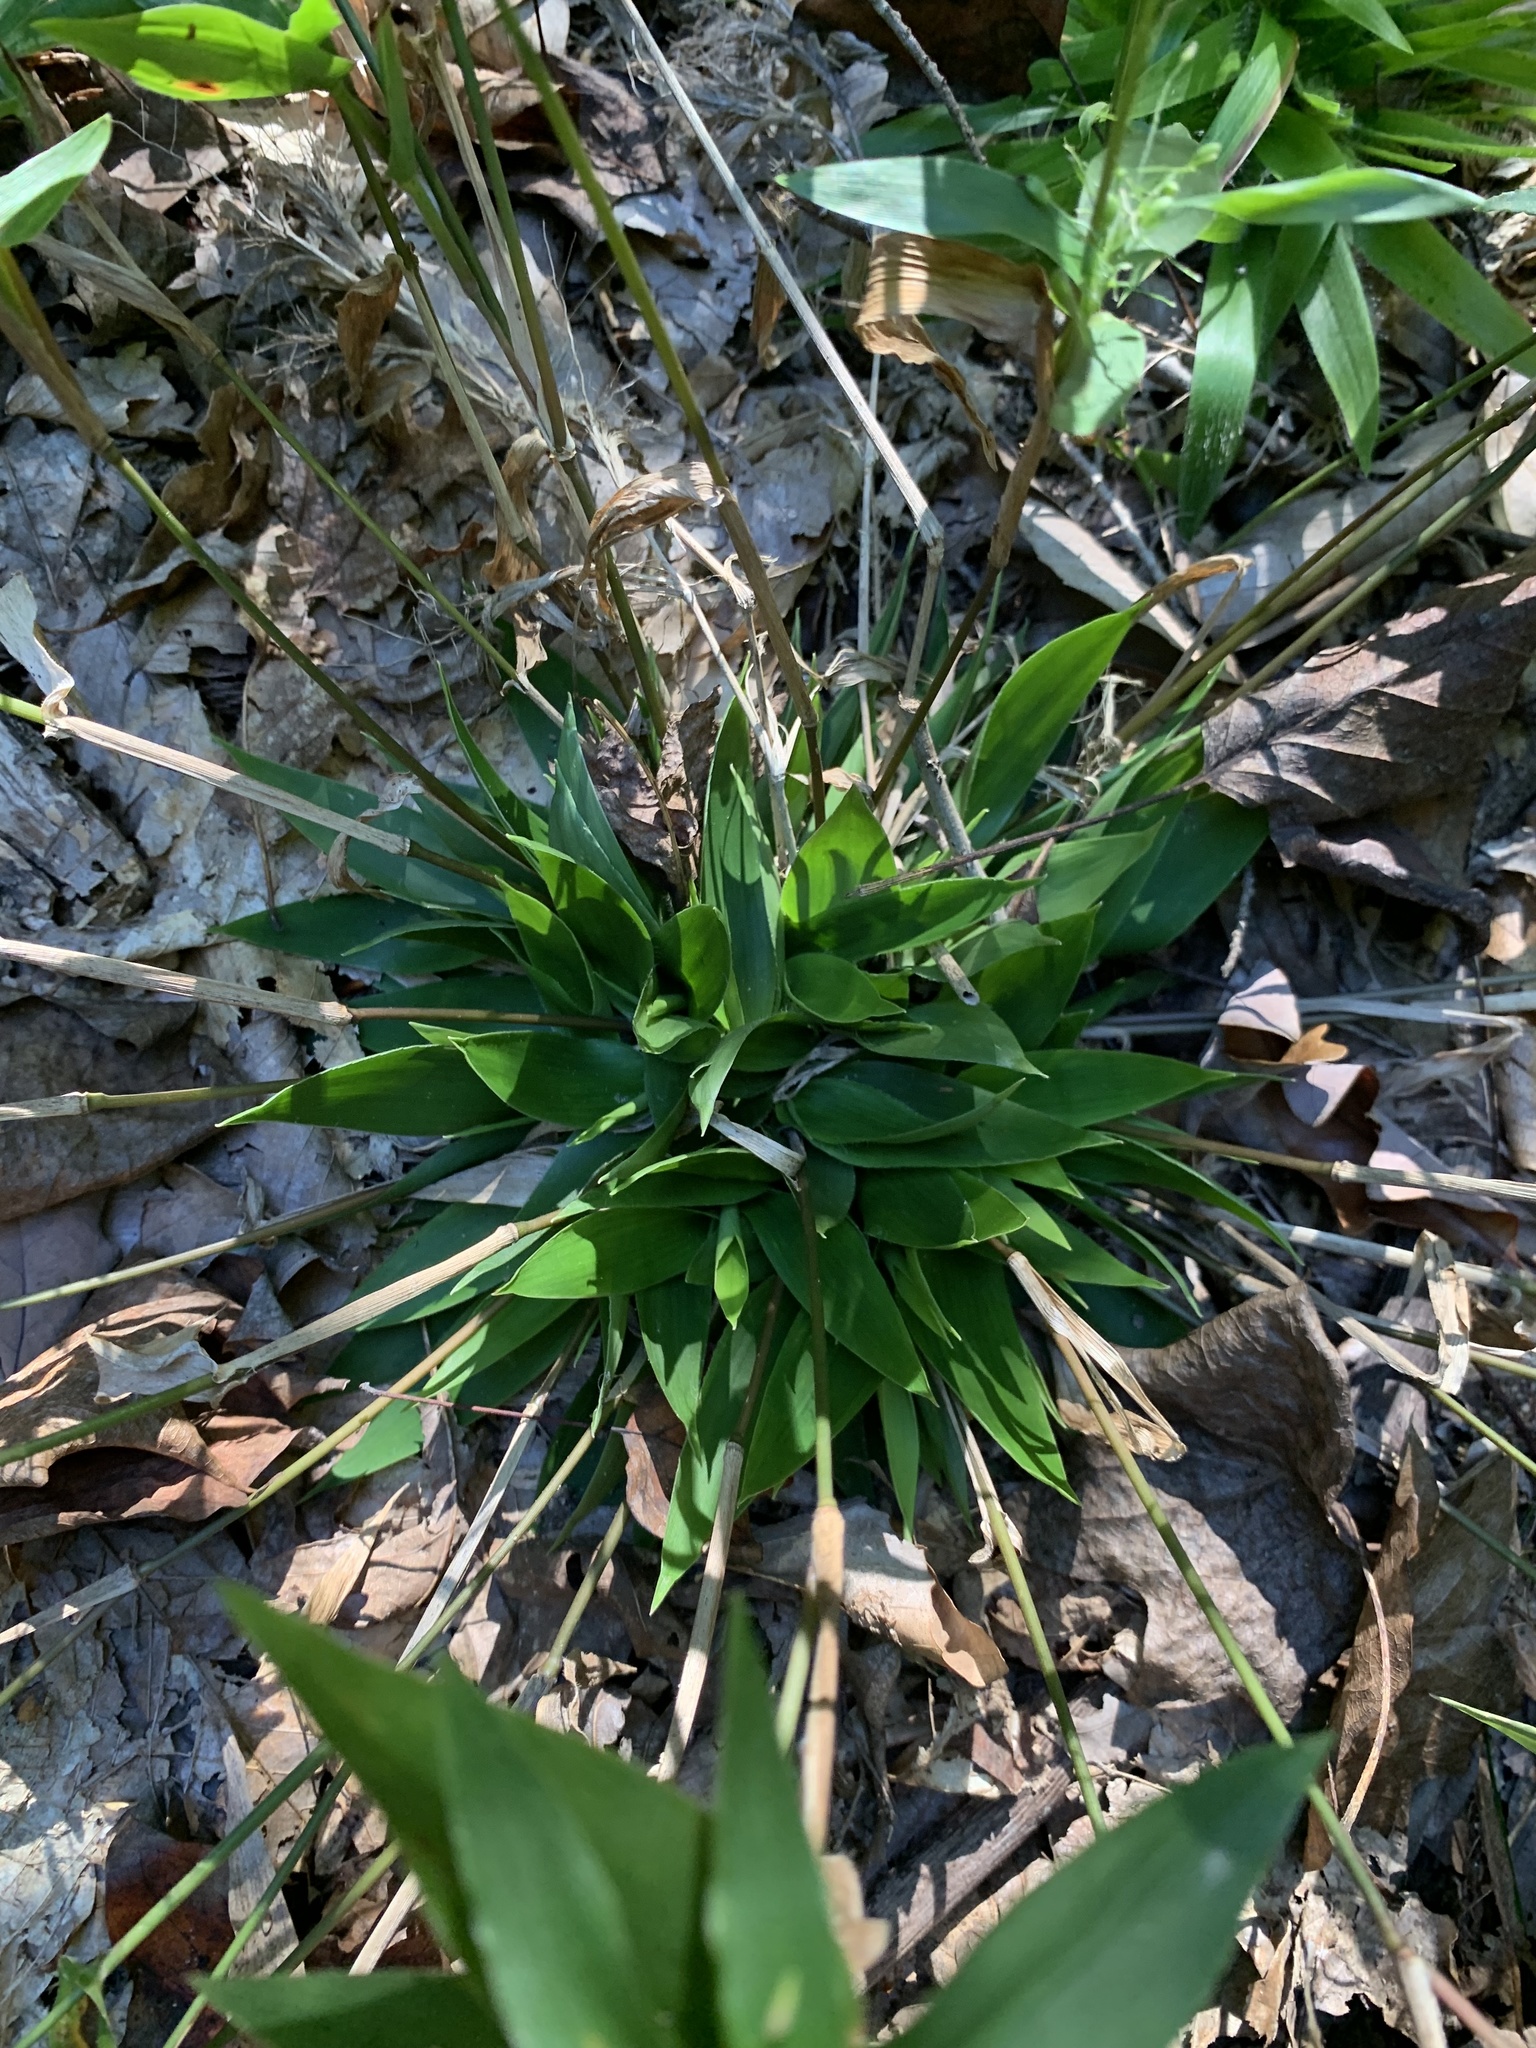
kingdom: Plantae
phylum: Tracheophyta
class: Liliopsida
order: Poales
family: Poaceae
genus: Dichanthelium
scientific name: Dichanthelium commutatum
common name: Variable witchgrass
